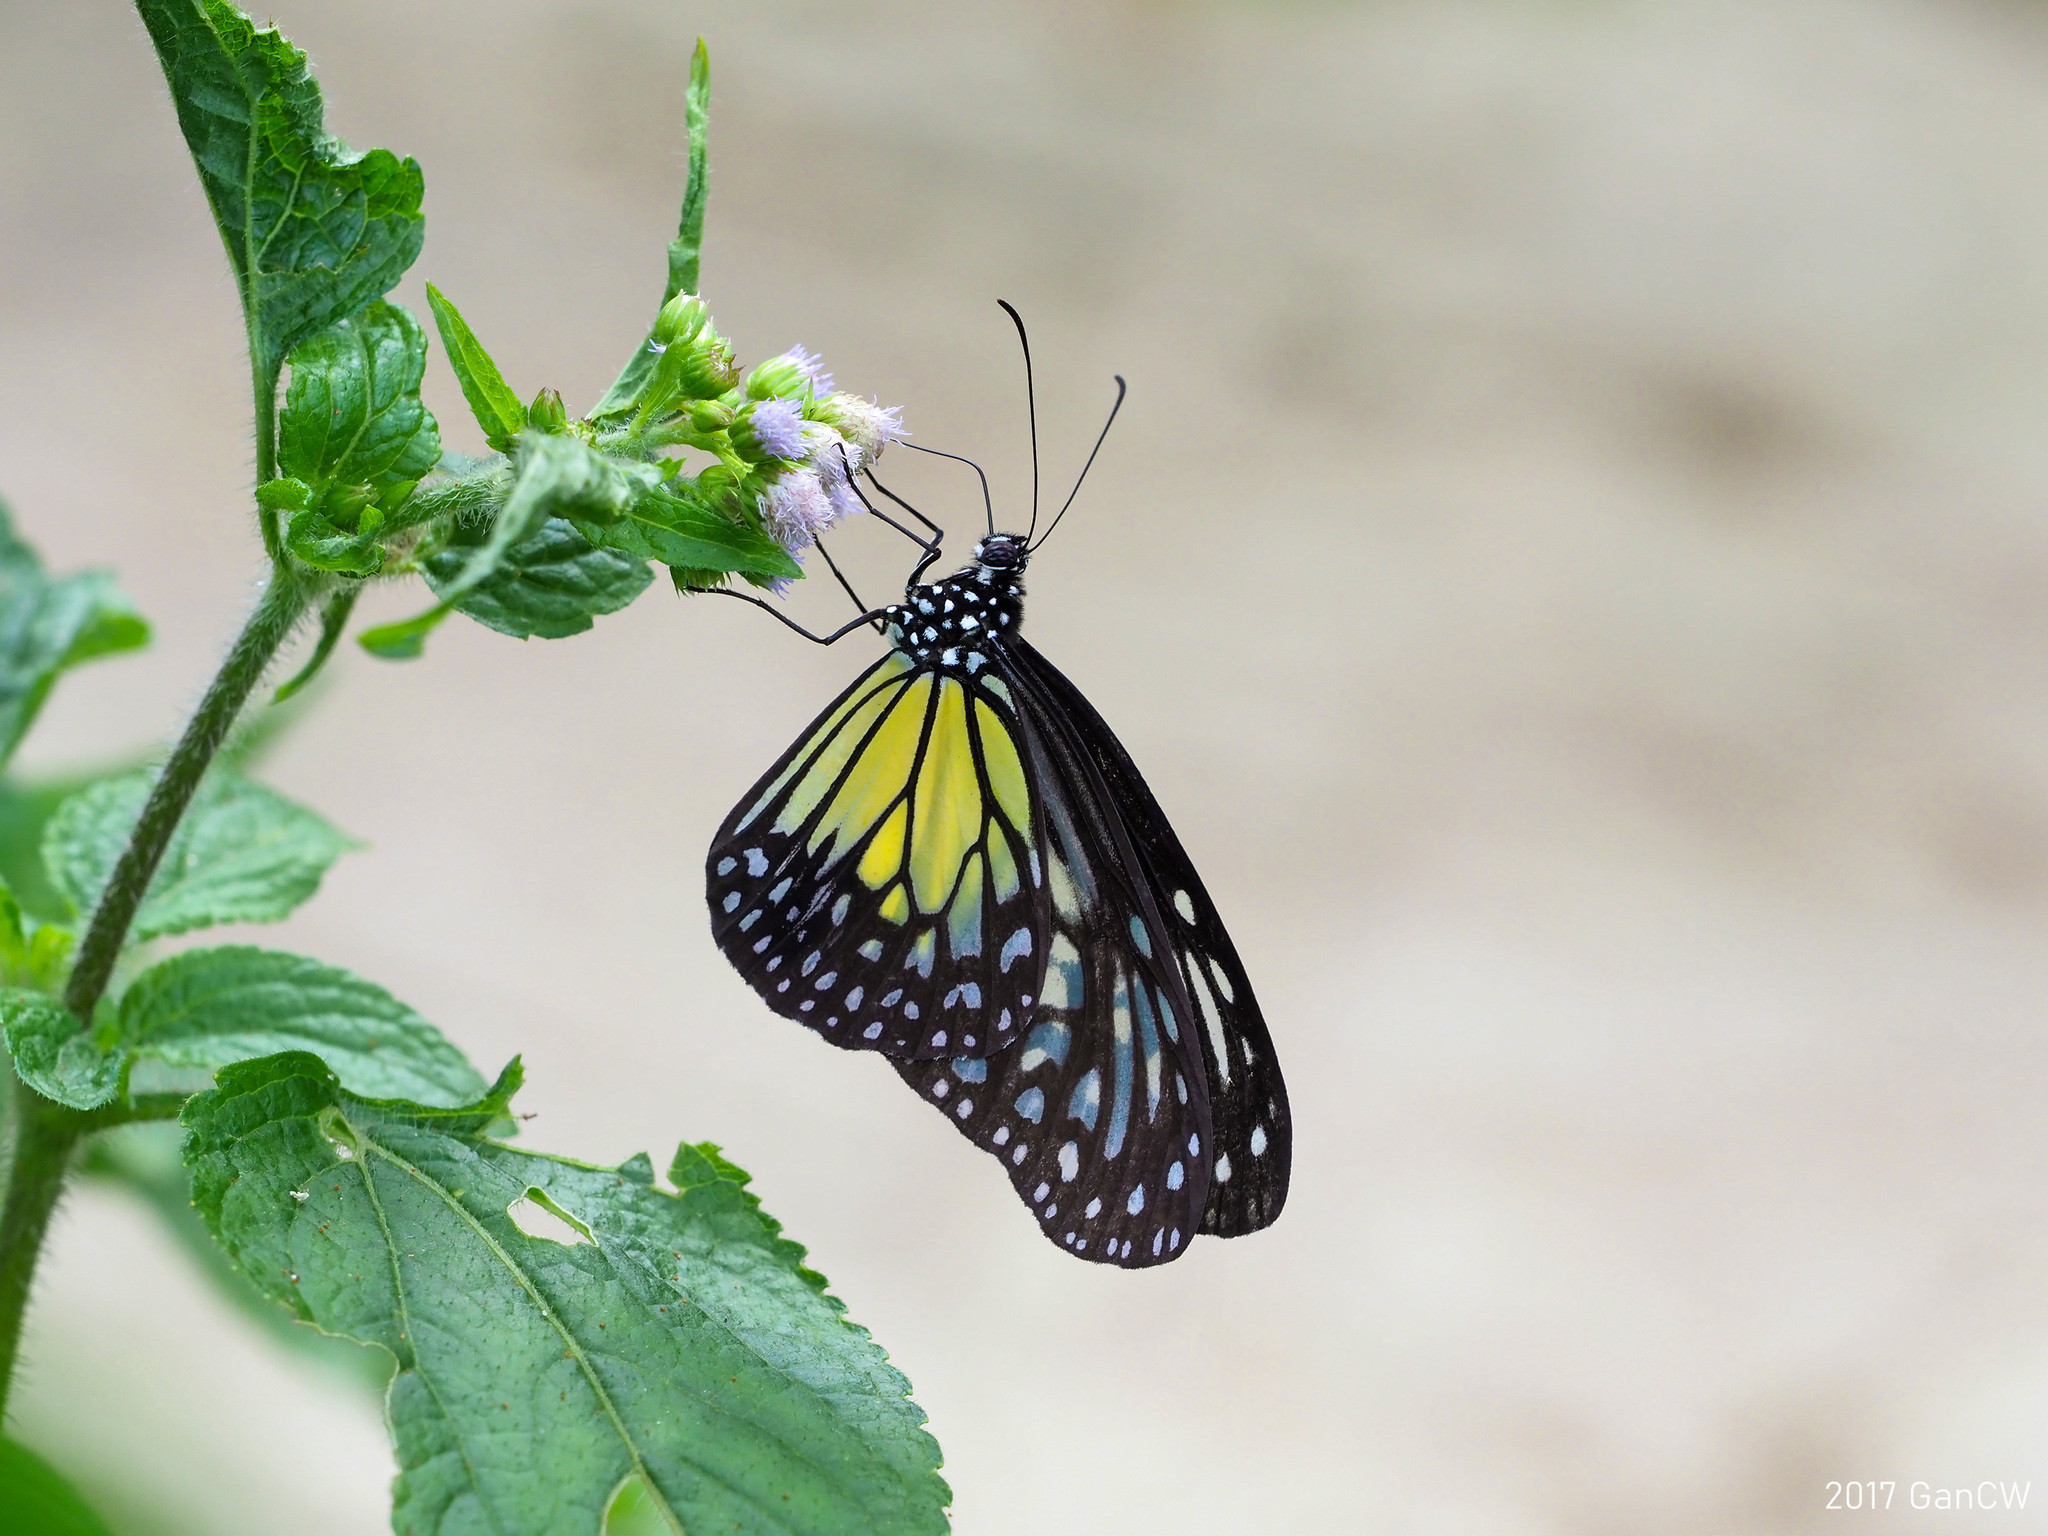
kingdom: Animalia
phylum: Arthropoda
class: Insecta
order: Lepidoptera
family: Nymphalidae
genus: Parantica
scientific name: Parantica aspasia
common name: Yellow glassy tiger
